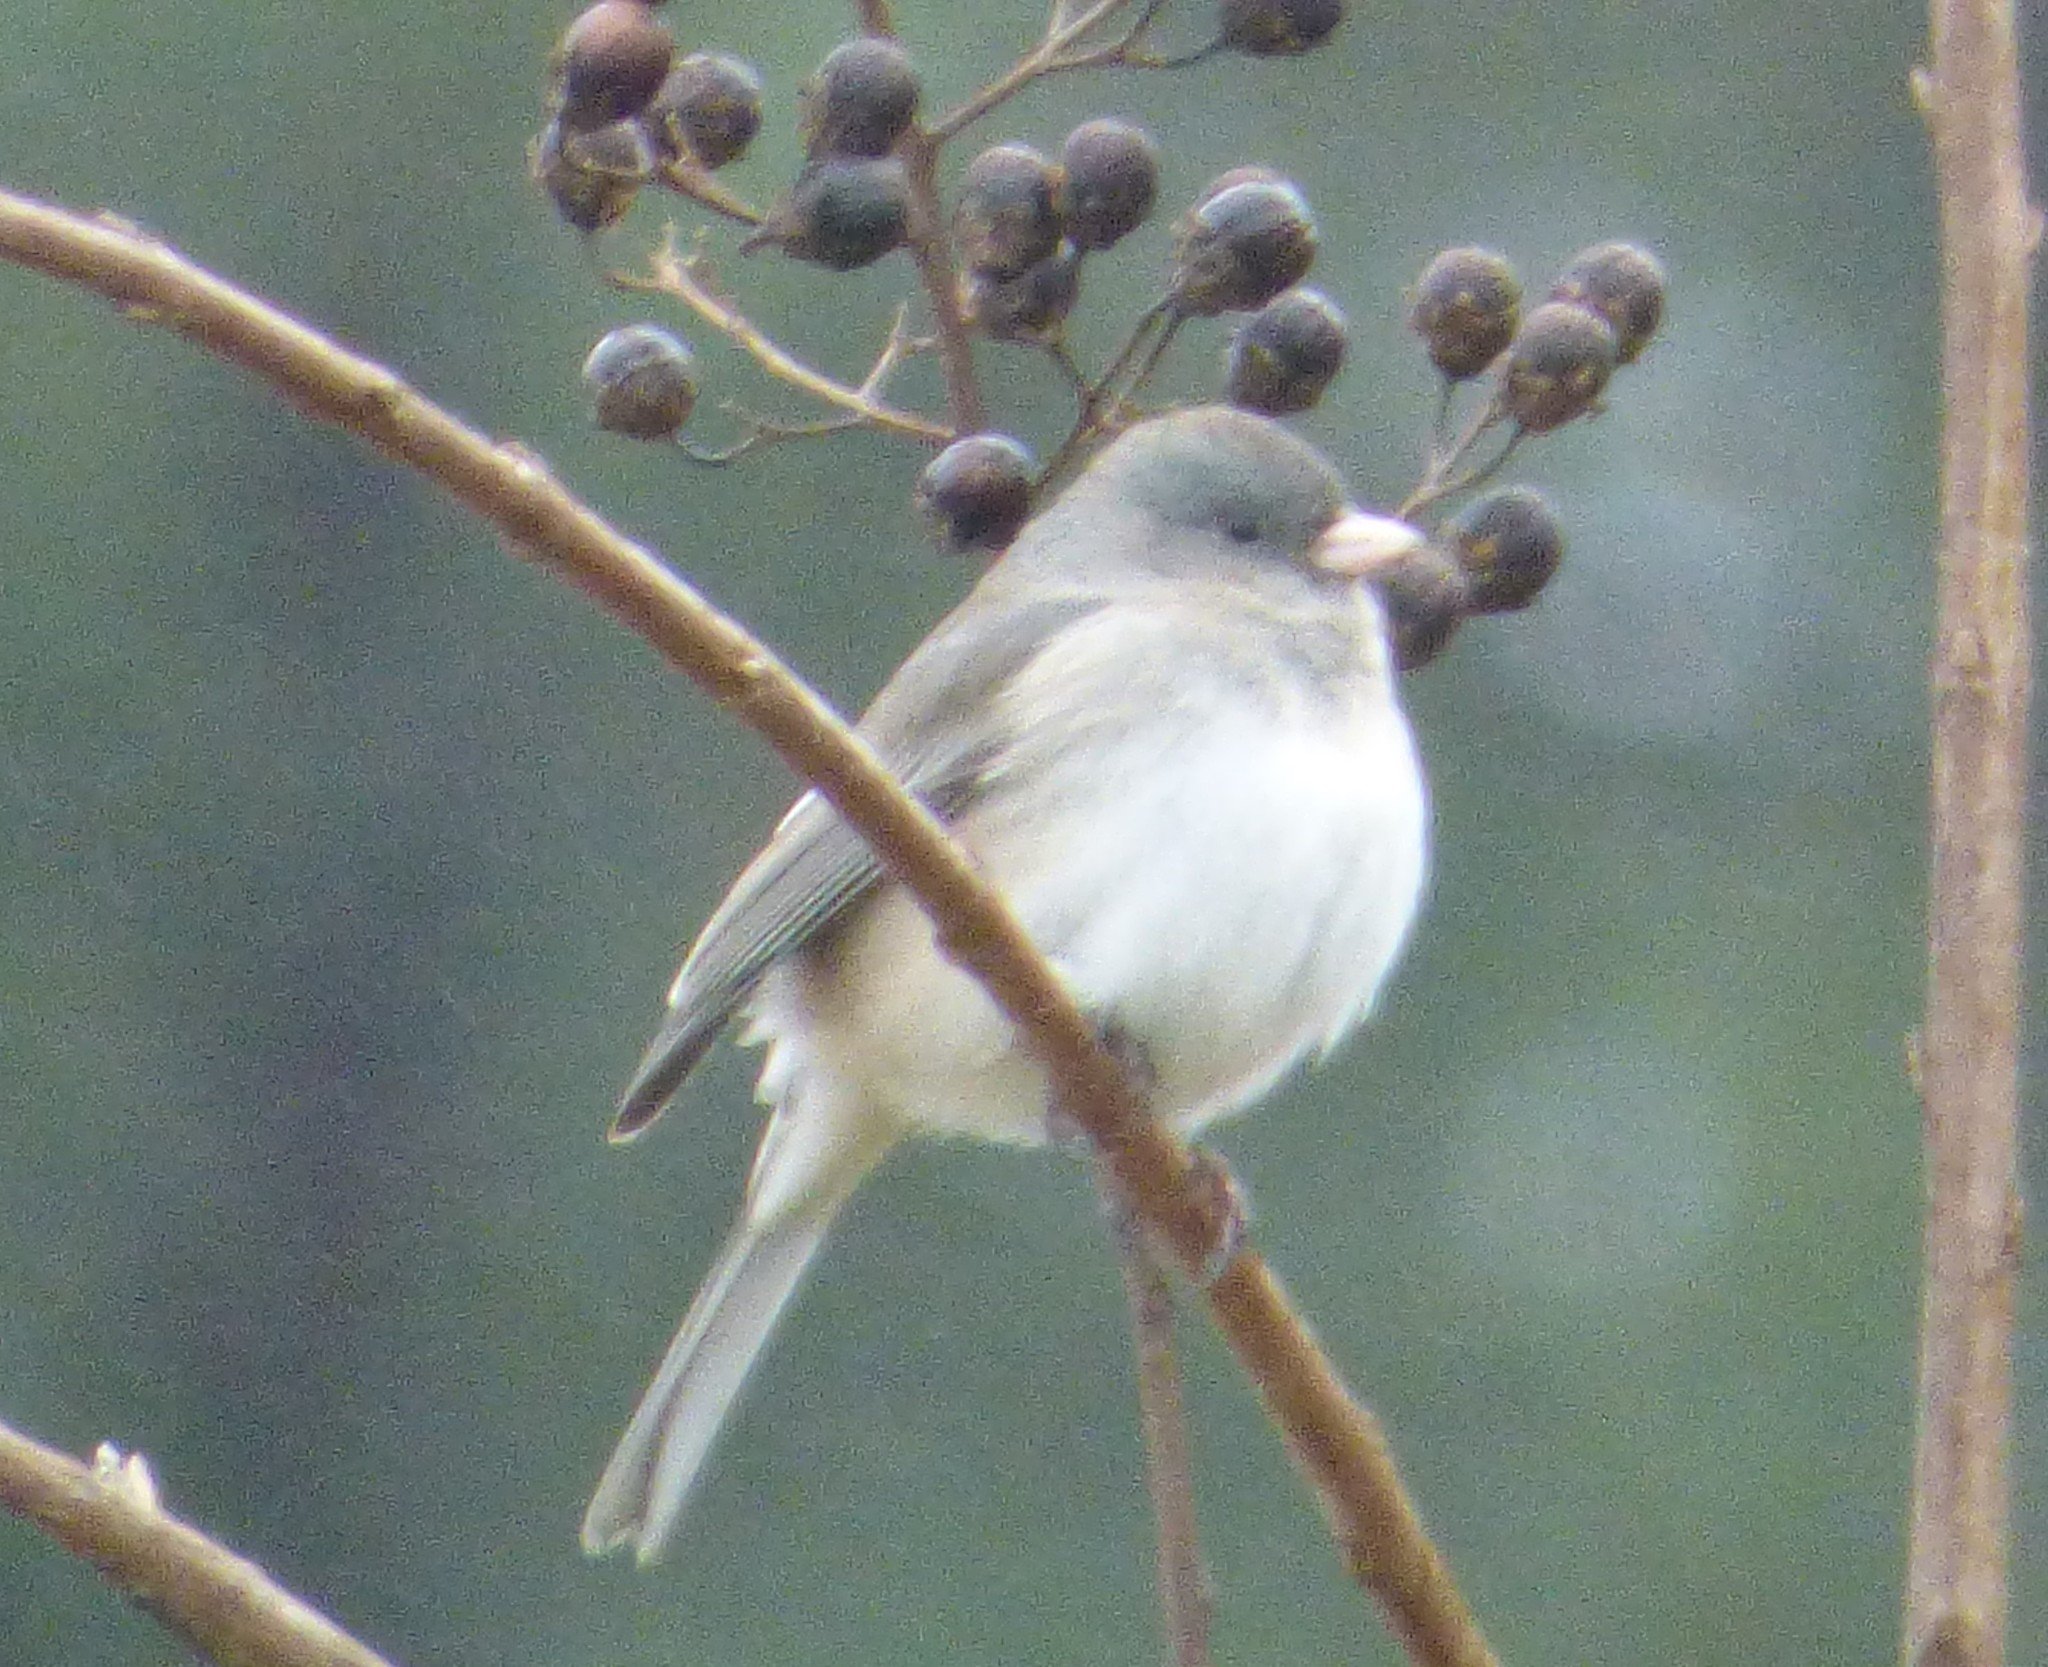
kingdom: Animalia
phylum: Chordata
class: Aves
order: Passeriformes
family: Passerellidae
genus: Junco
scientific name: Junco hyemalis
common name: Dark-eyed junco
